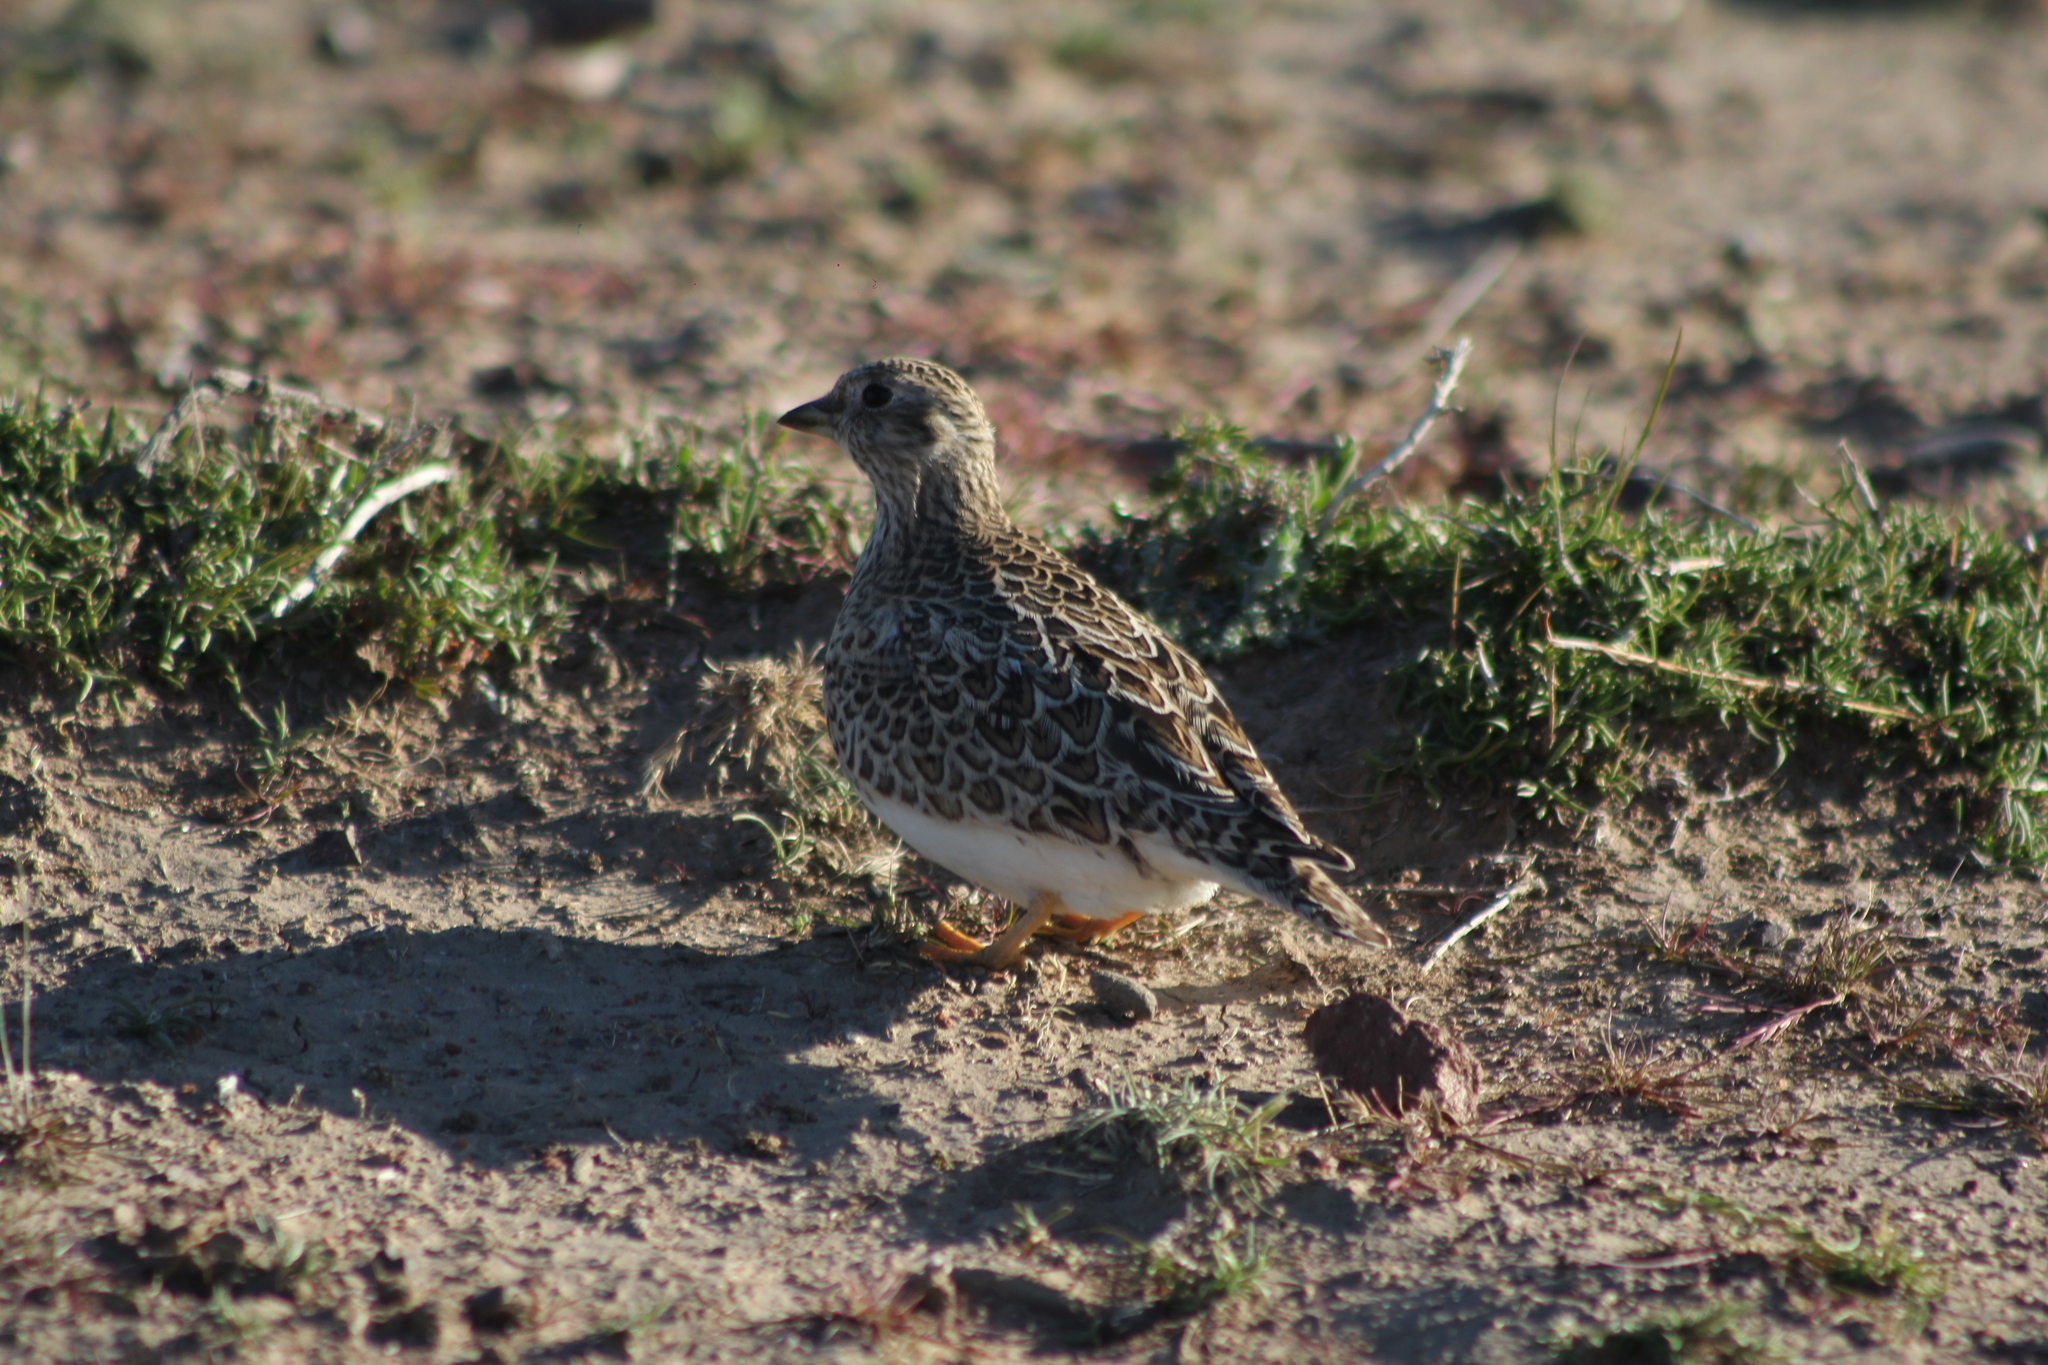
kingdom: Animalia
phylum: Chordata
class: Aves
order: Charadriiformes
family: Thinocoridae
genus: Thinocorus
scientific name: Thinocorus orbignyianus
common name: Grey-breasted seedsnipe
